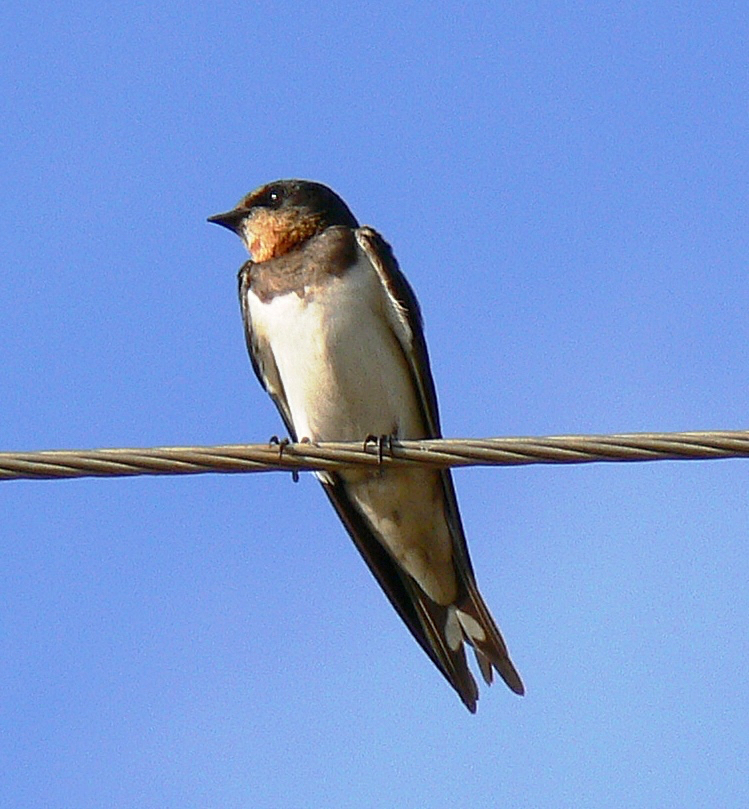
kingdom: Animalia
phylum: Chordata
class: Aves
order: Passeriformes
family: Hirundinidae
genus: Hirundo
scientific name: Hirundo rustica
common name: Barn swallow
